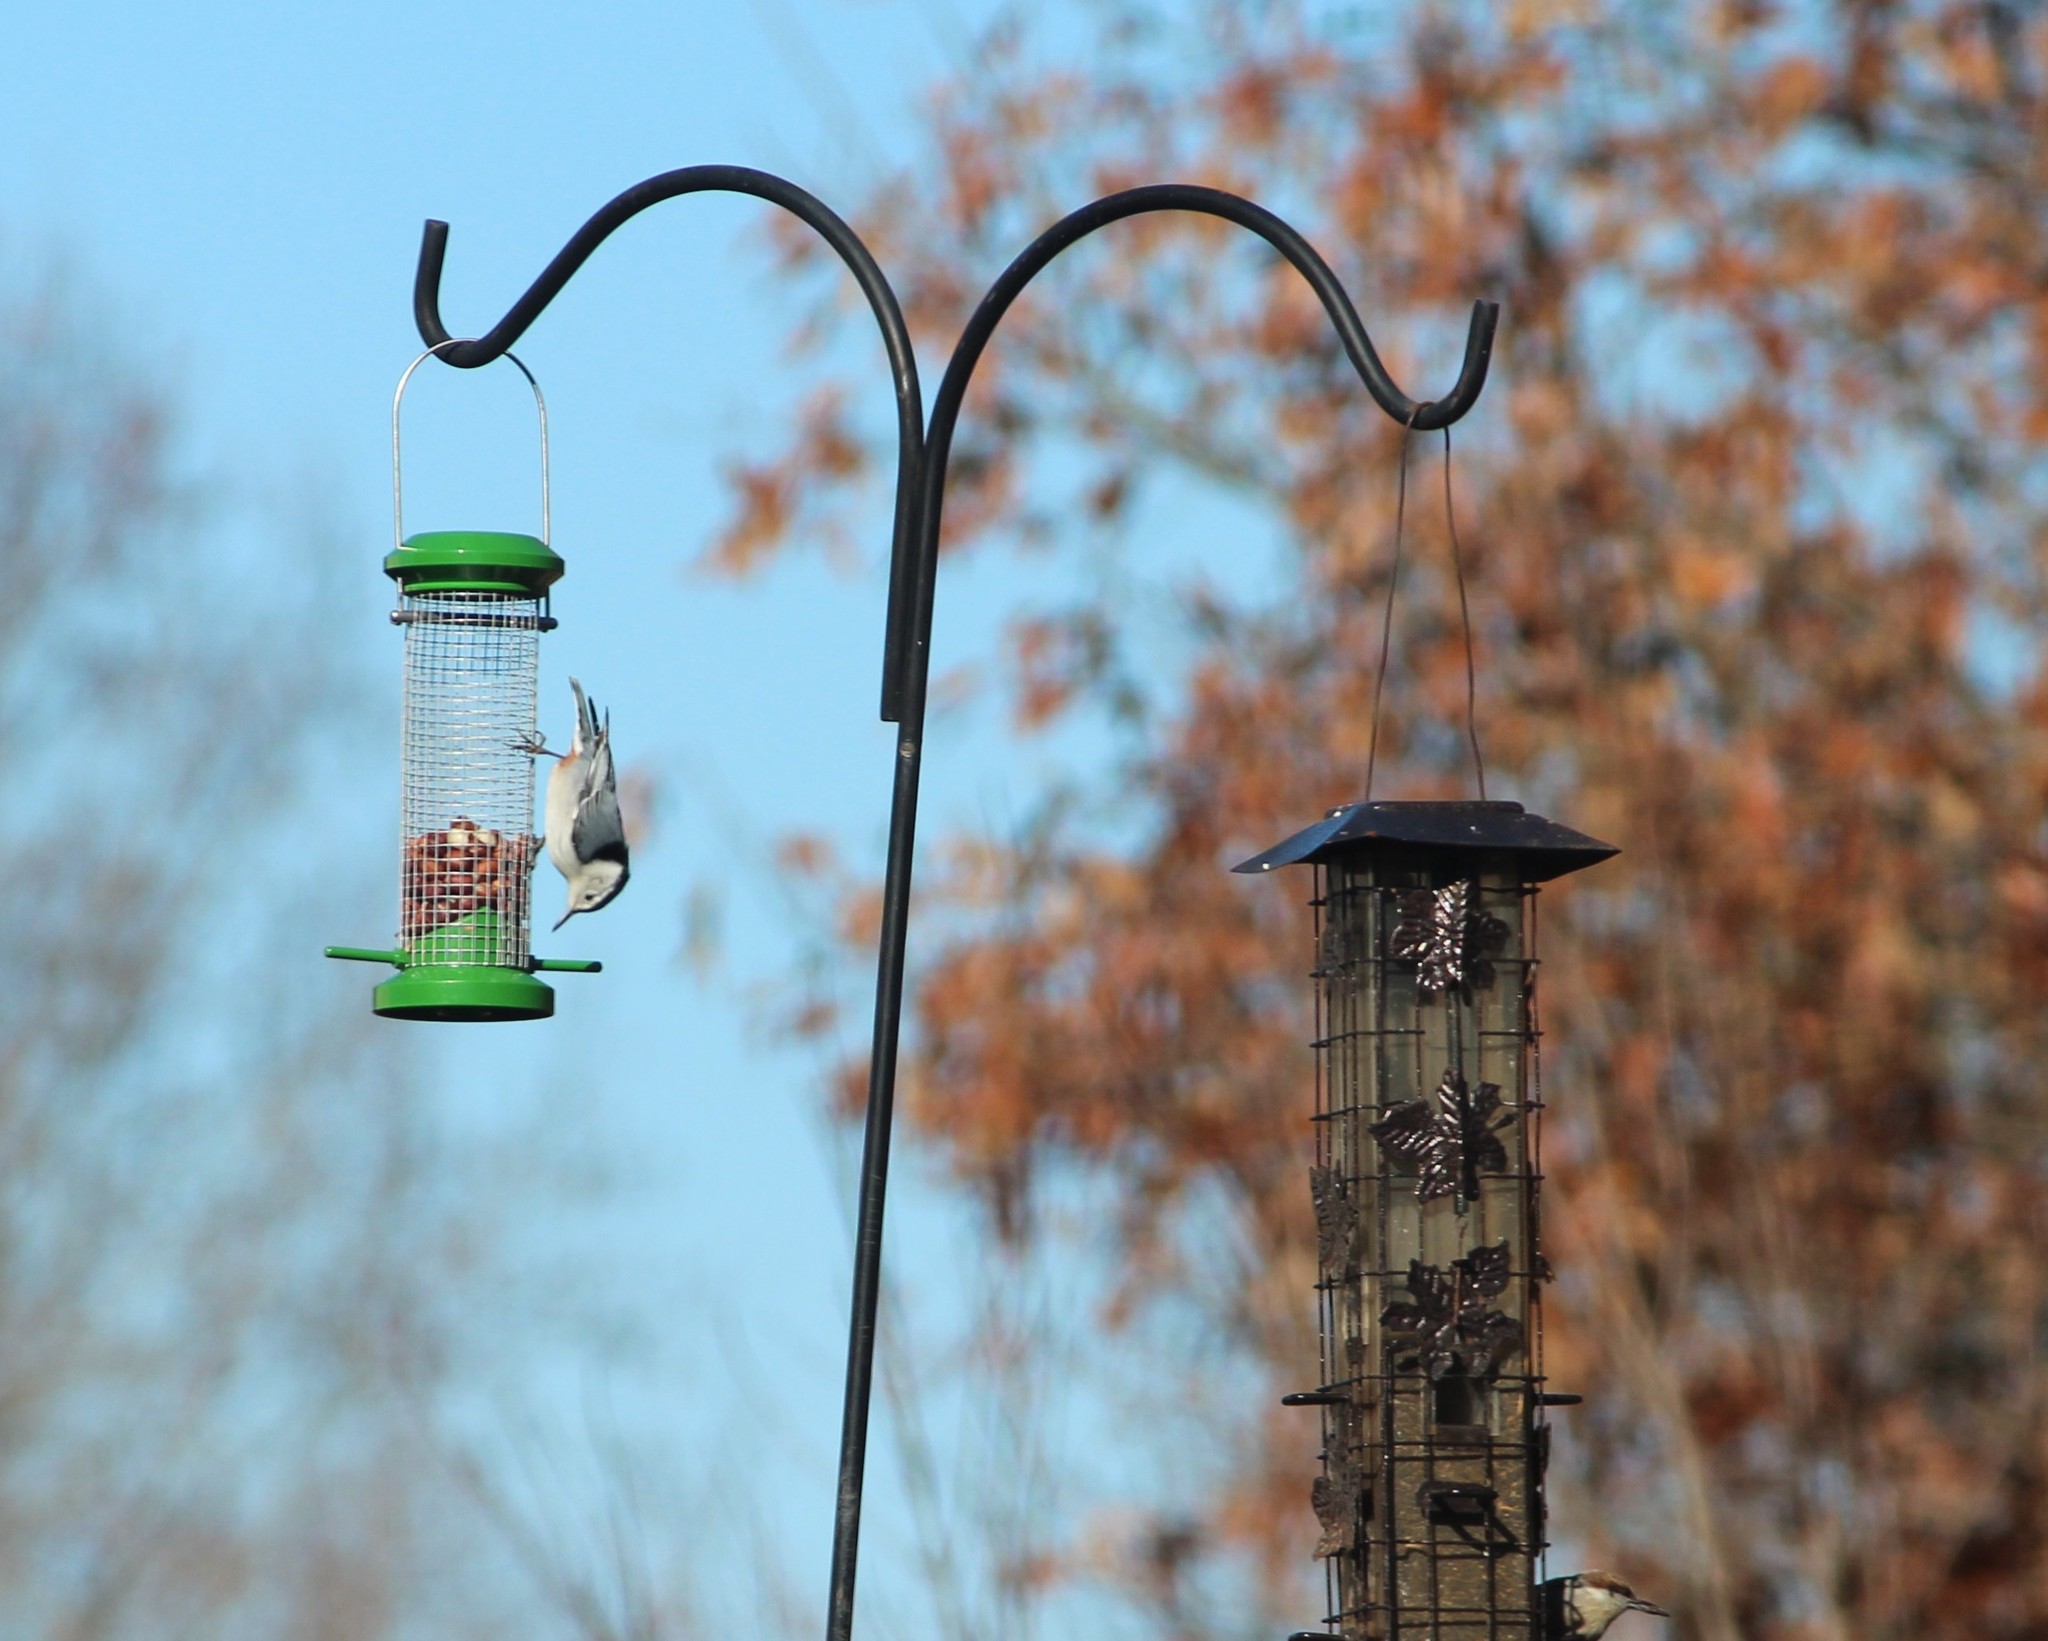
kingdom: Animalia
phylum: Chordata
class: Aves
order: Passeriformes
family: Sittidae
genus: Sitta
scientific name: Sitta carolinensis
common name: White-breasted nuthatch
